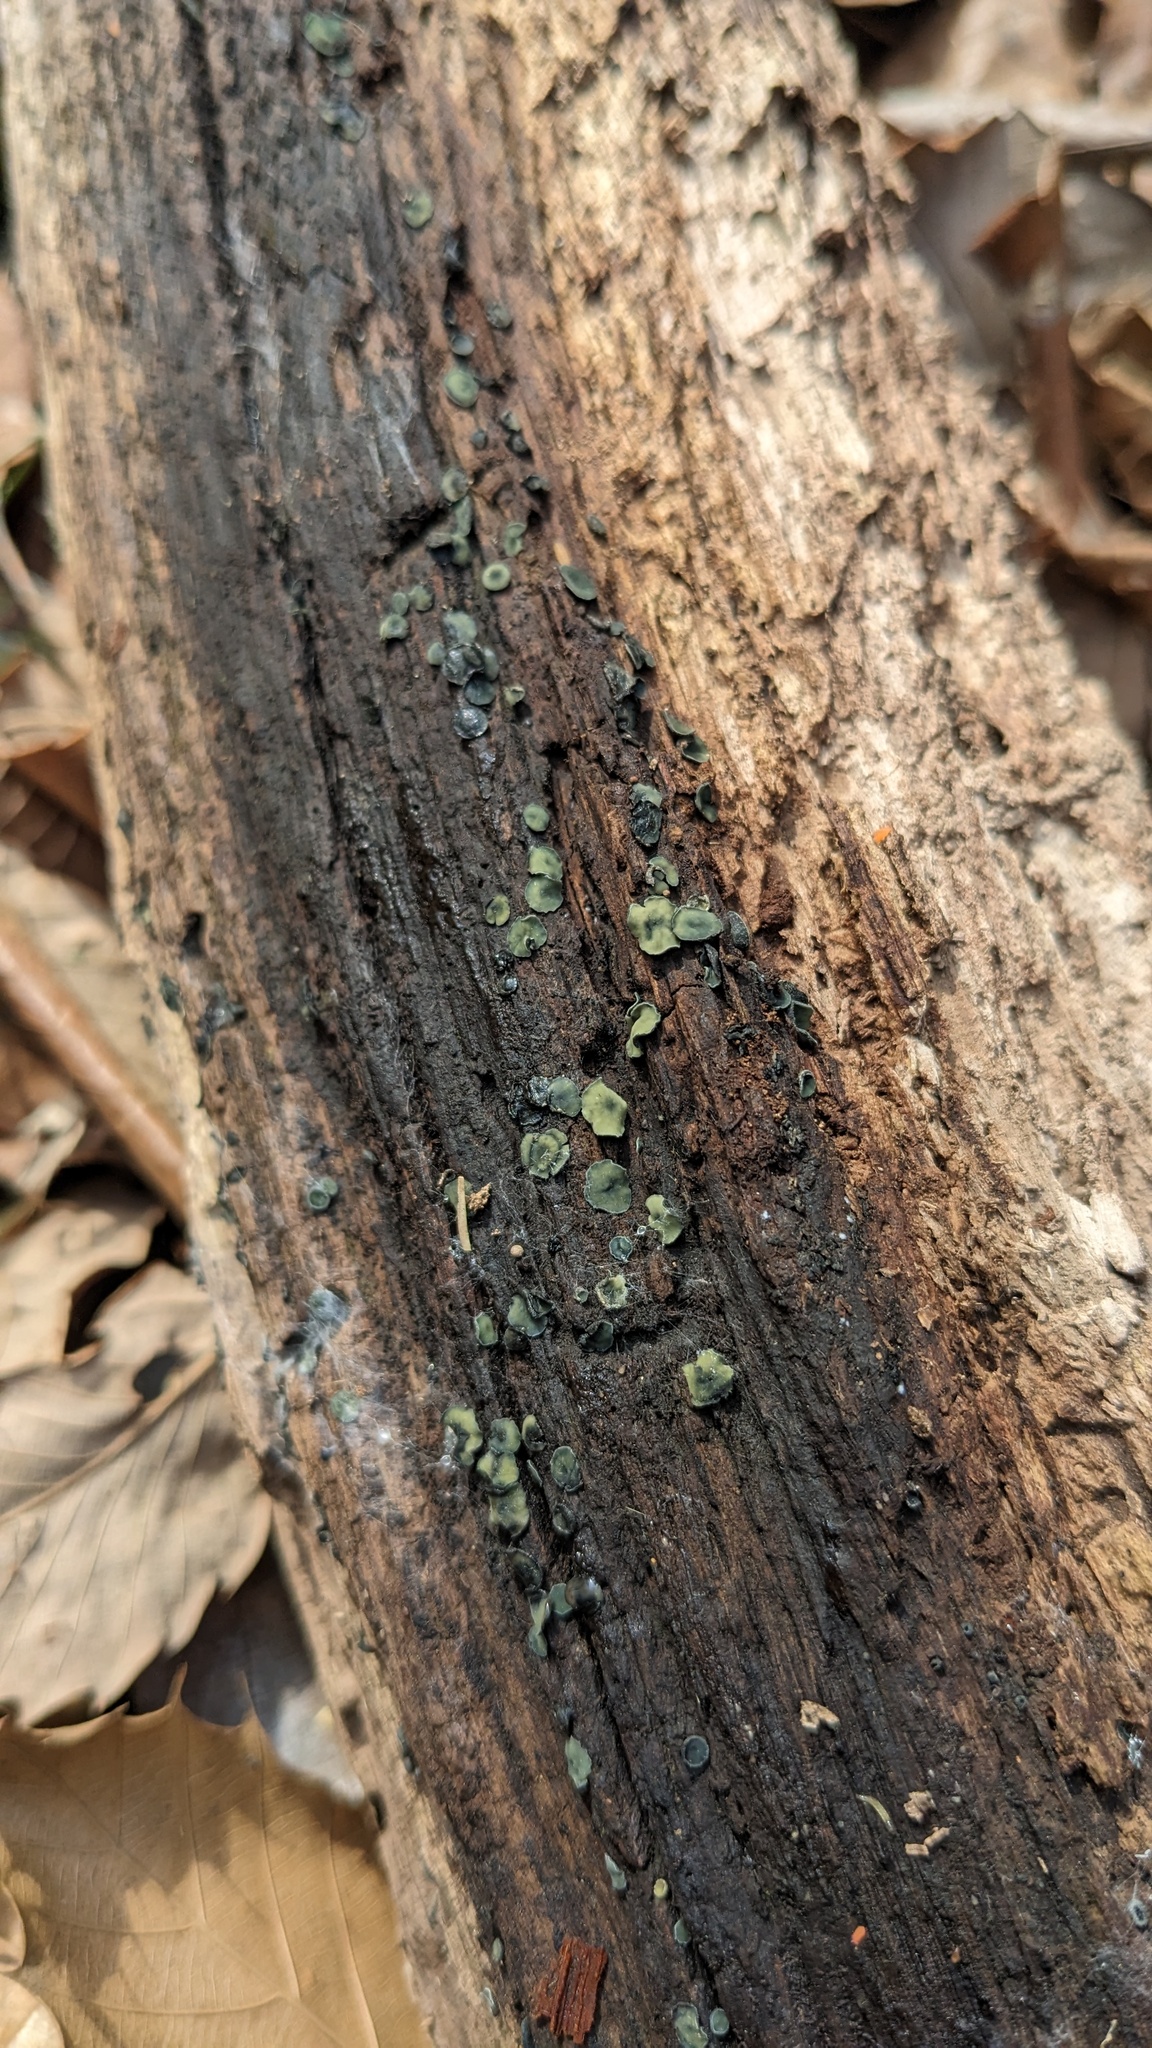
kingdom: Fungi
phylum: Ascomycota
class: Leotiomycetes
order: Helotiales
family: Chlorospleniaceae
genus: Chlorosplenium
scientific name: Chlorosplenium chlora
